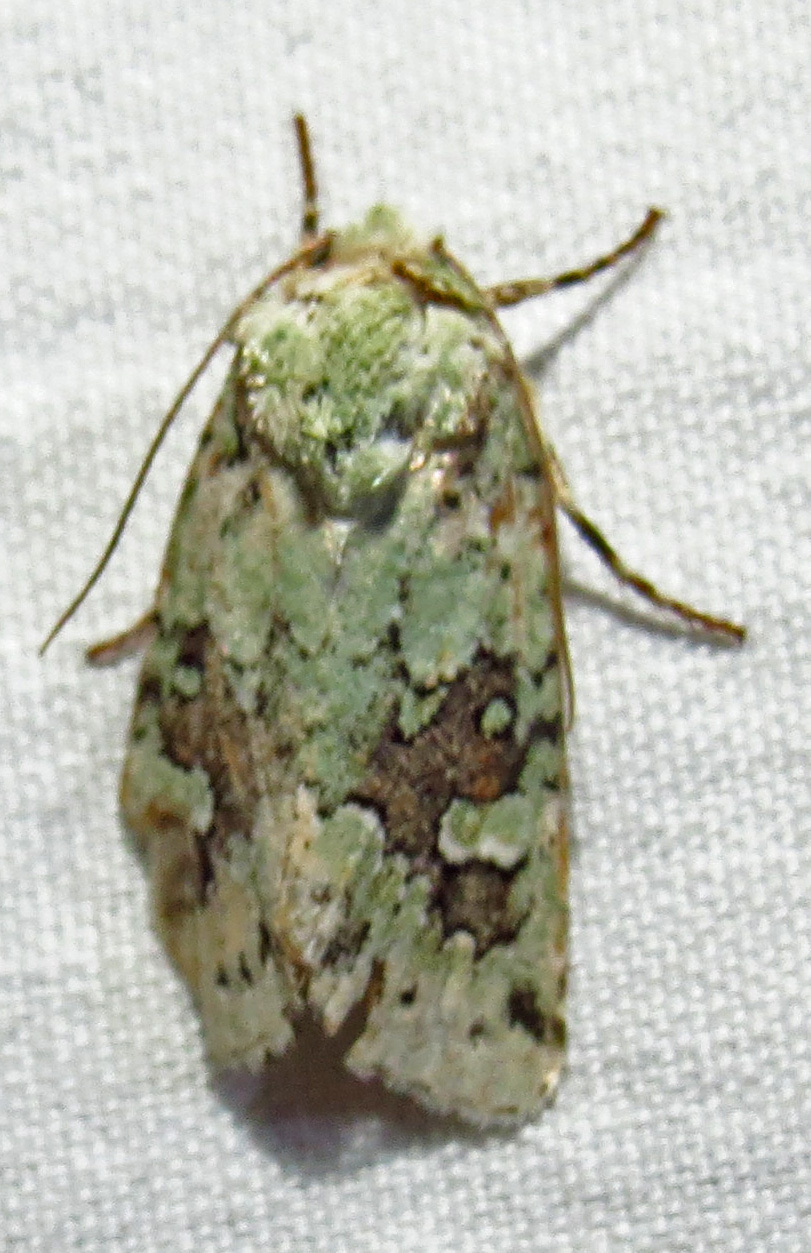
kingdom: Animalia
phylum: Arthropoda
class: Insecta
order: Lepidoptera
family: Noctuidae
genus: Lacinipolia
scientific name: Lacinipolia laudabilis
